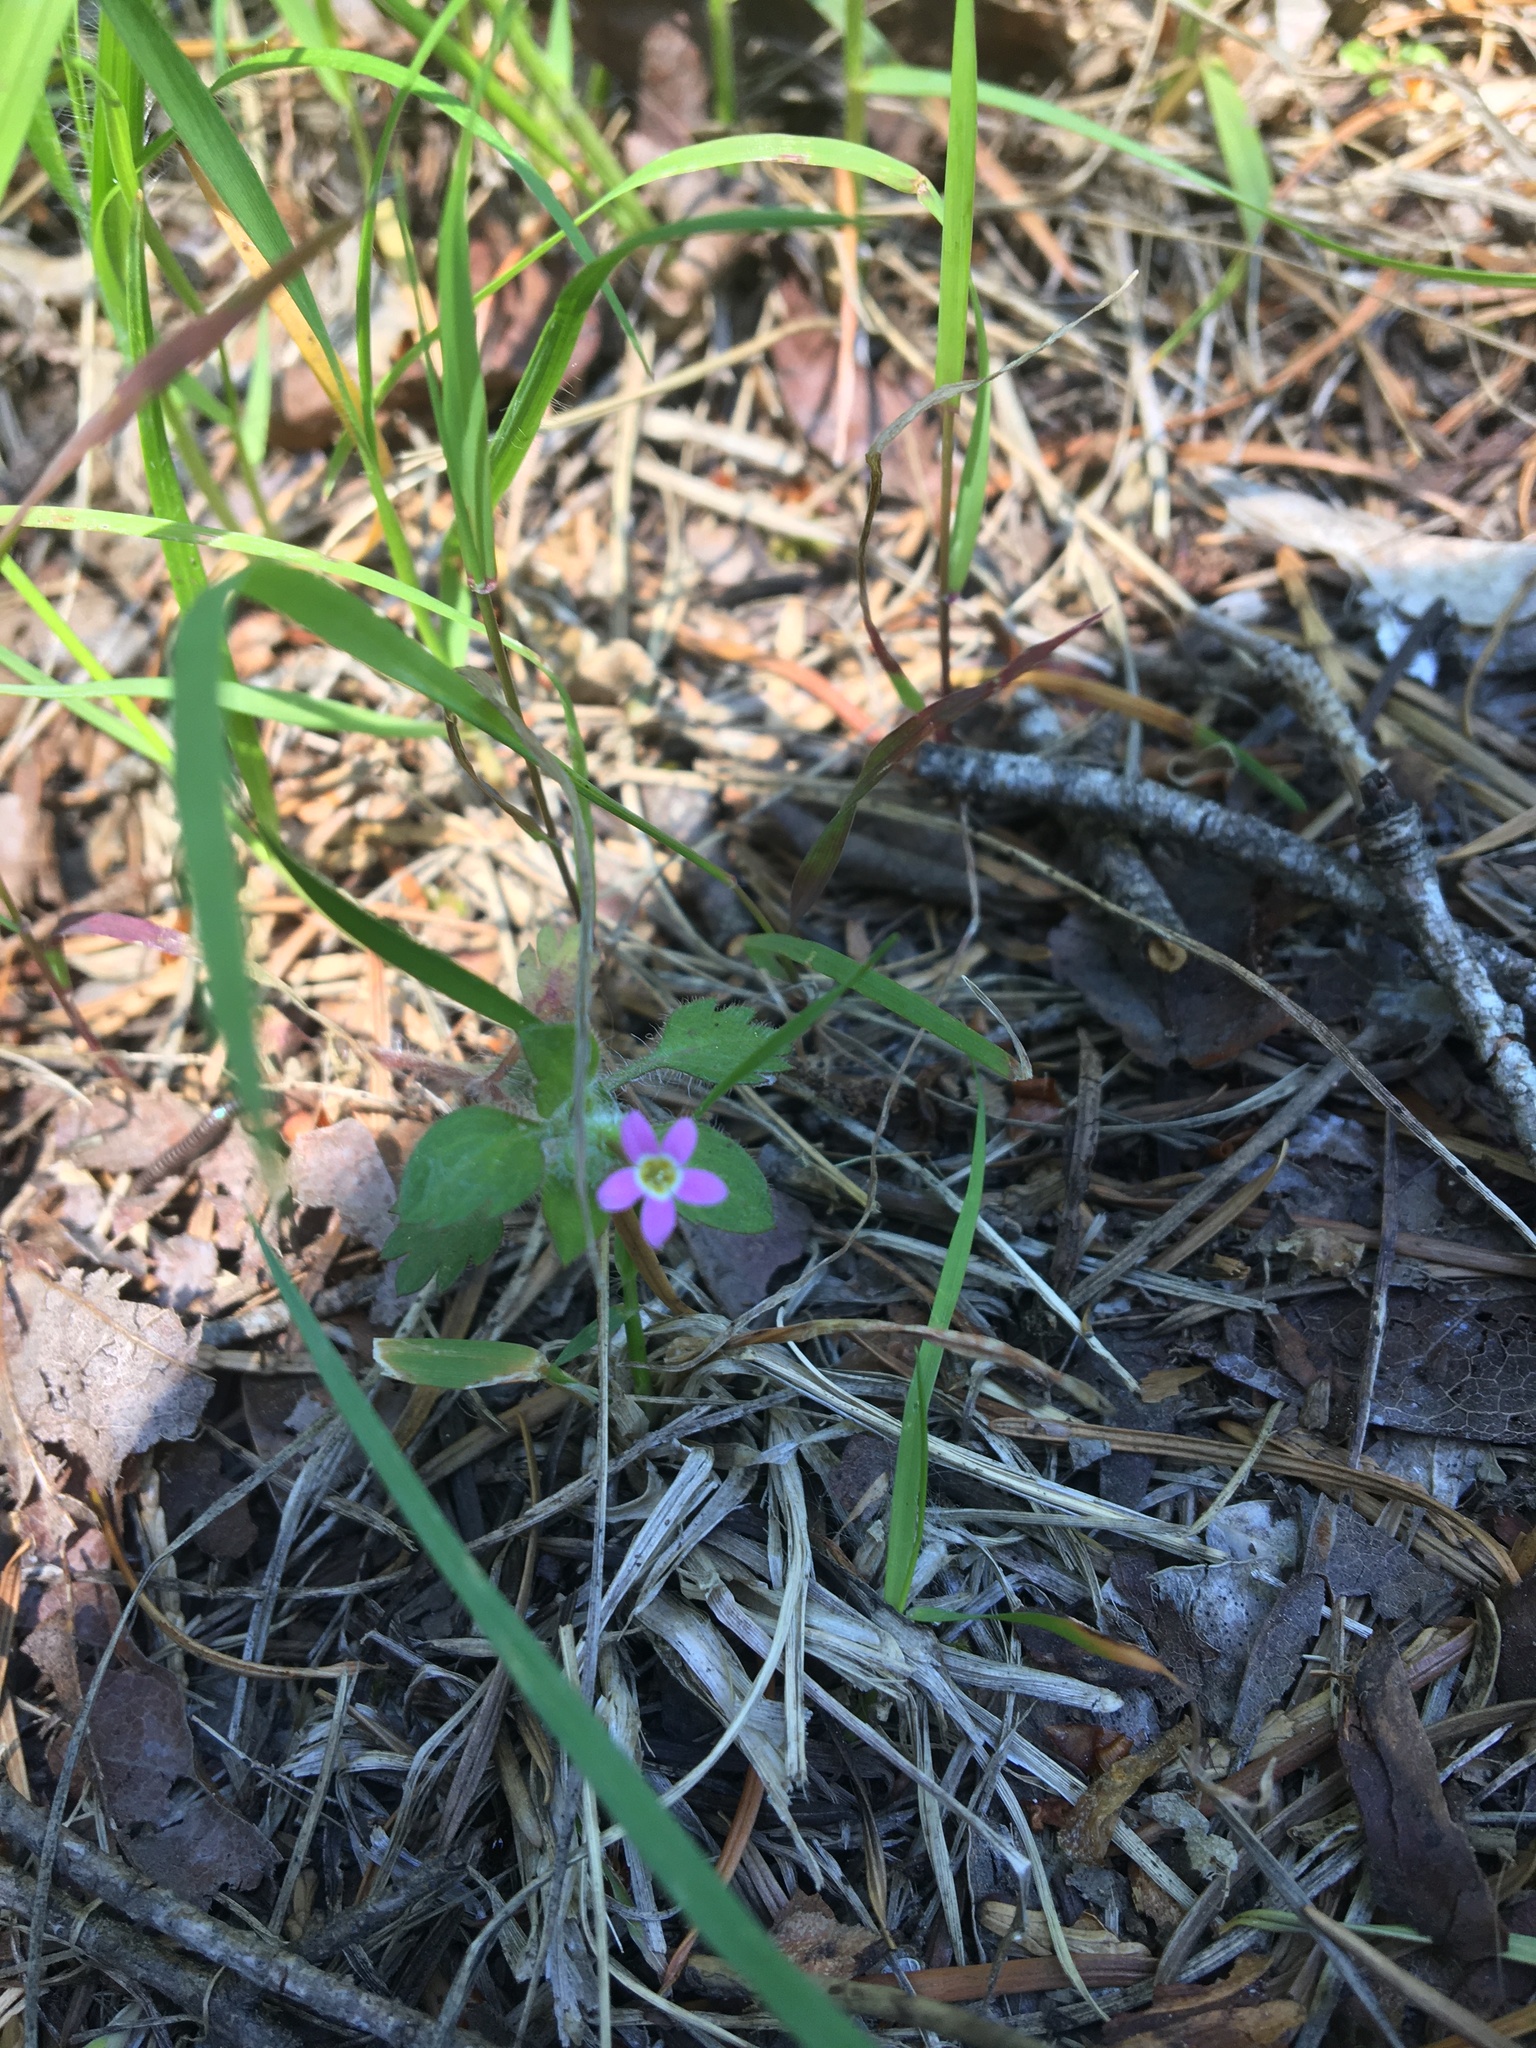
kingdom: Plantae
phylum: Tracheophyta
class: Magnoliopsida
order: Ericales
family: Polemoniaceae
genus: Collomia
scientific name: Collomia heterophylla
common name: Variable-leaved collomia
